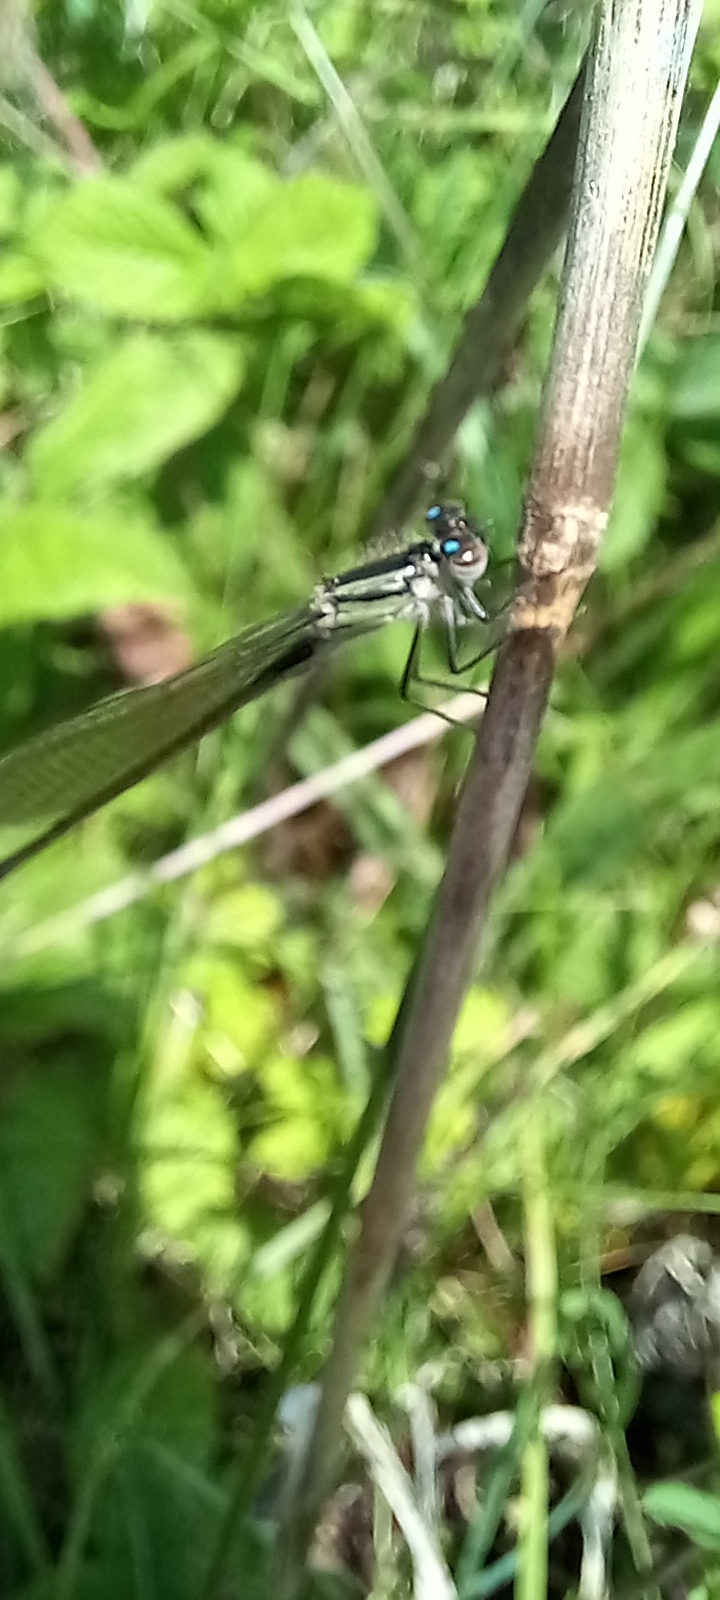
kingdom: Animalia
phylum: Arthropoda
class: Insecta
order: Odonata
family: Coenagrionidae
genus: Ischnura
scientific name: Ischnura elegans
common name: Blue-tailed damselfly
